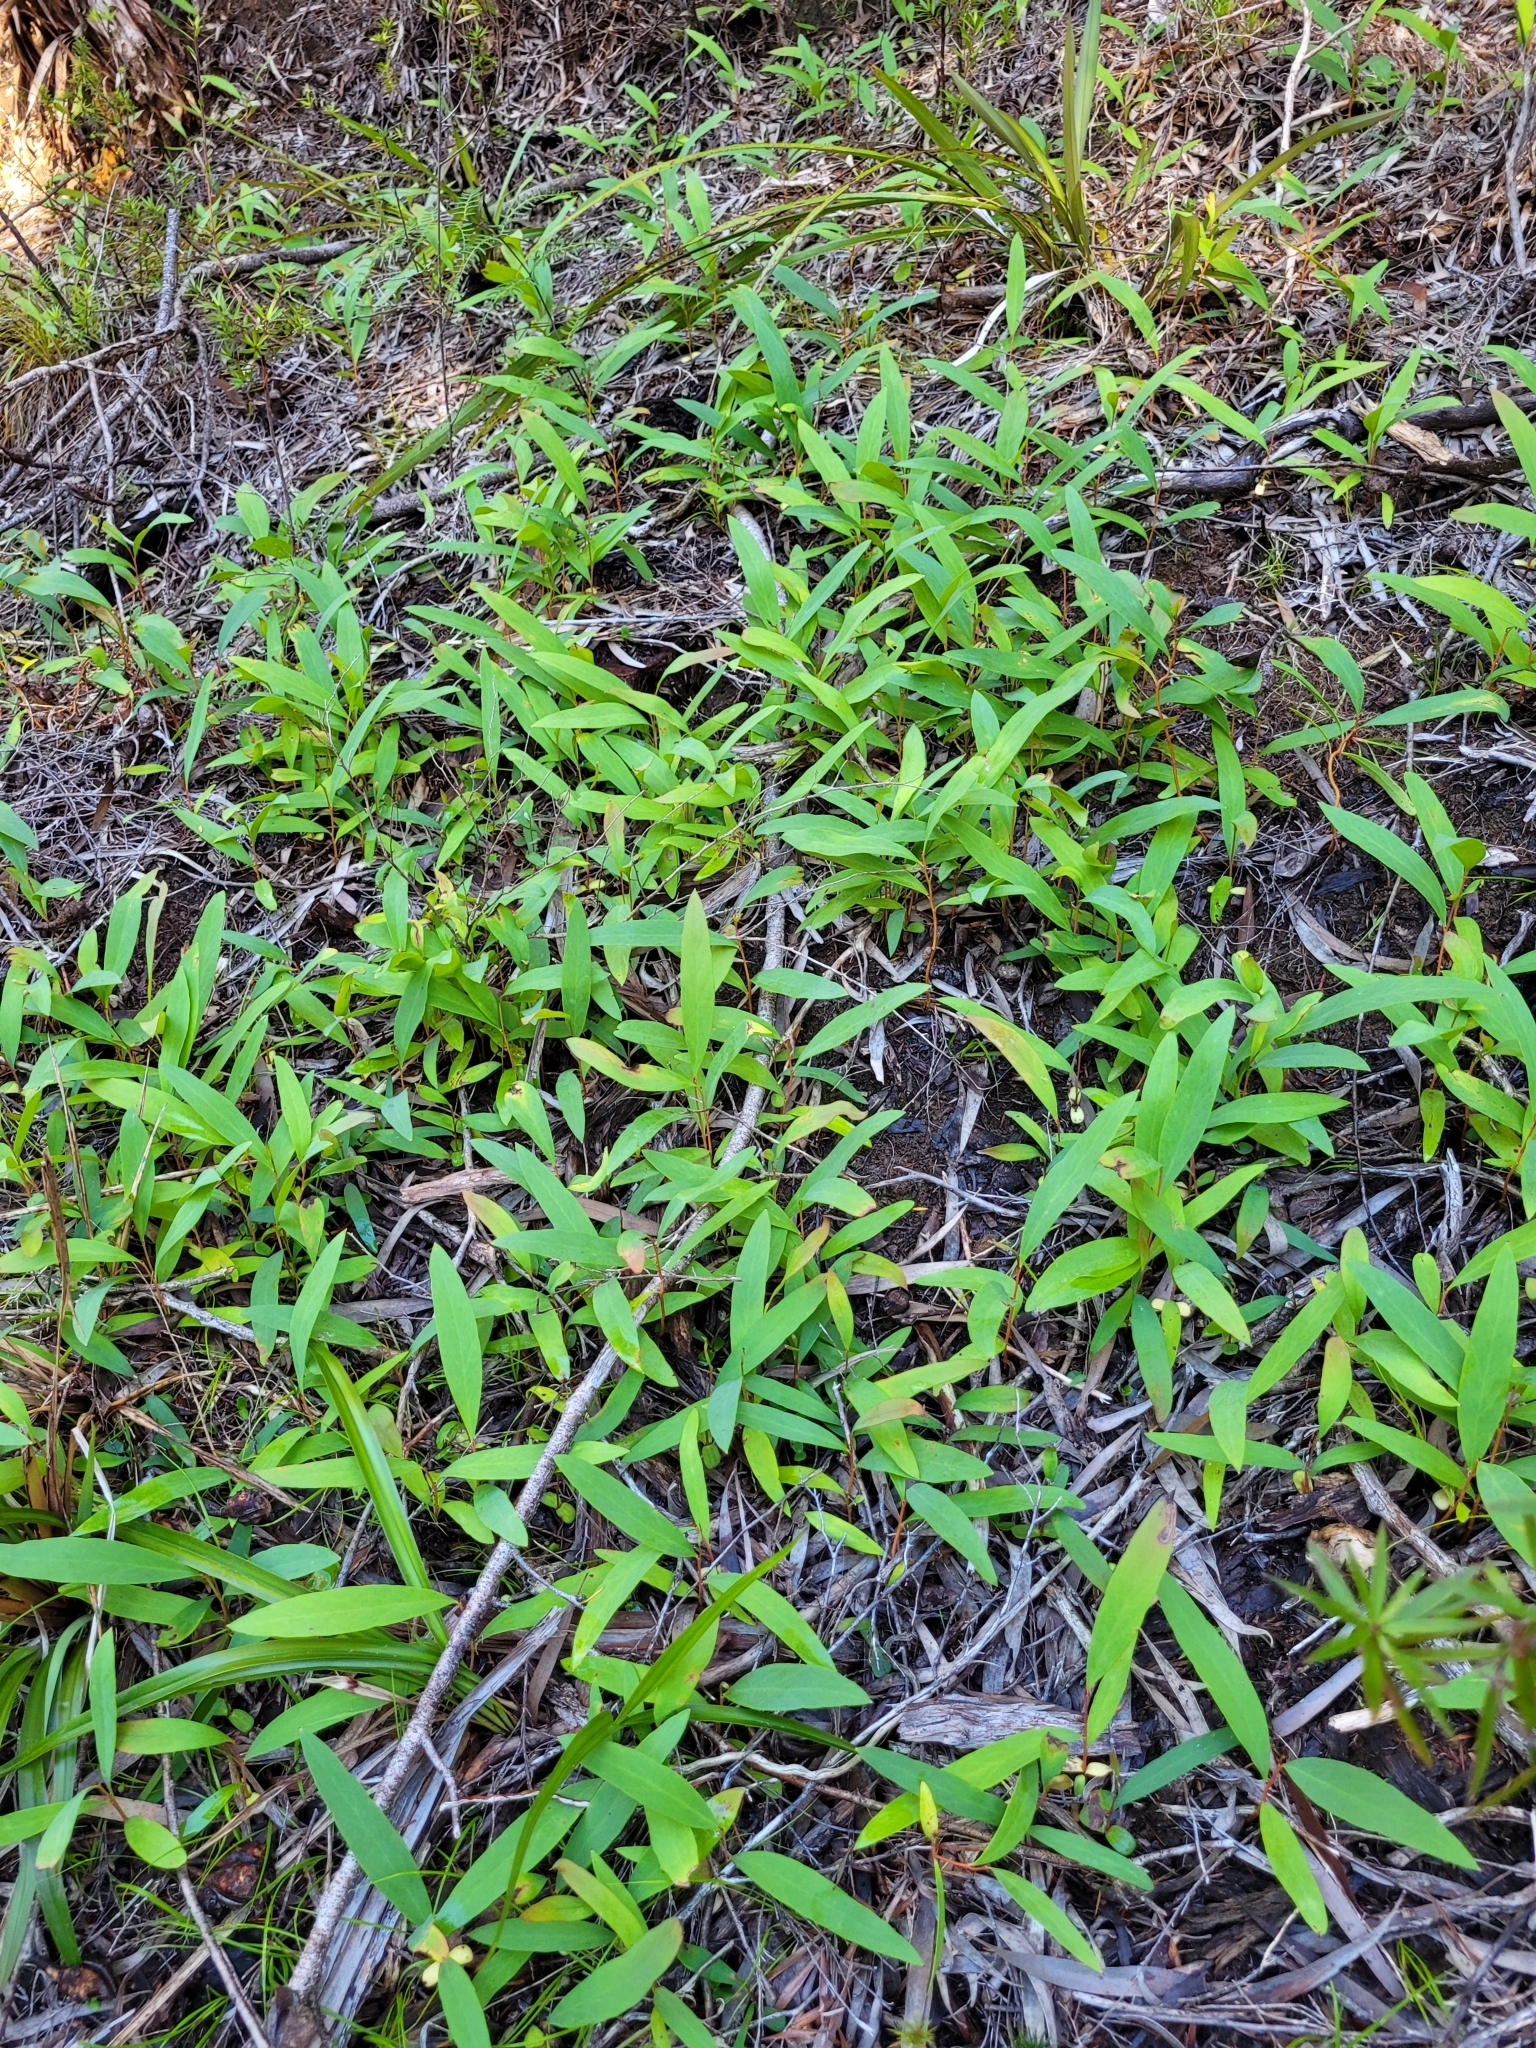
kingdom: Plantae
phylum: Tracheophyta
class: Magnoliopsida
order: Proteales
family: Proteaceae
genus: Hakea
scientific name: Hakea salicifolia
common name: Willow hakea
